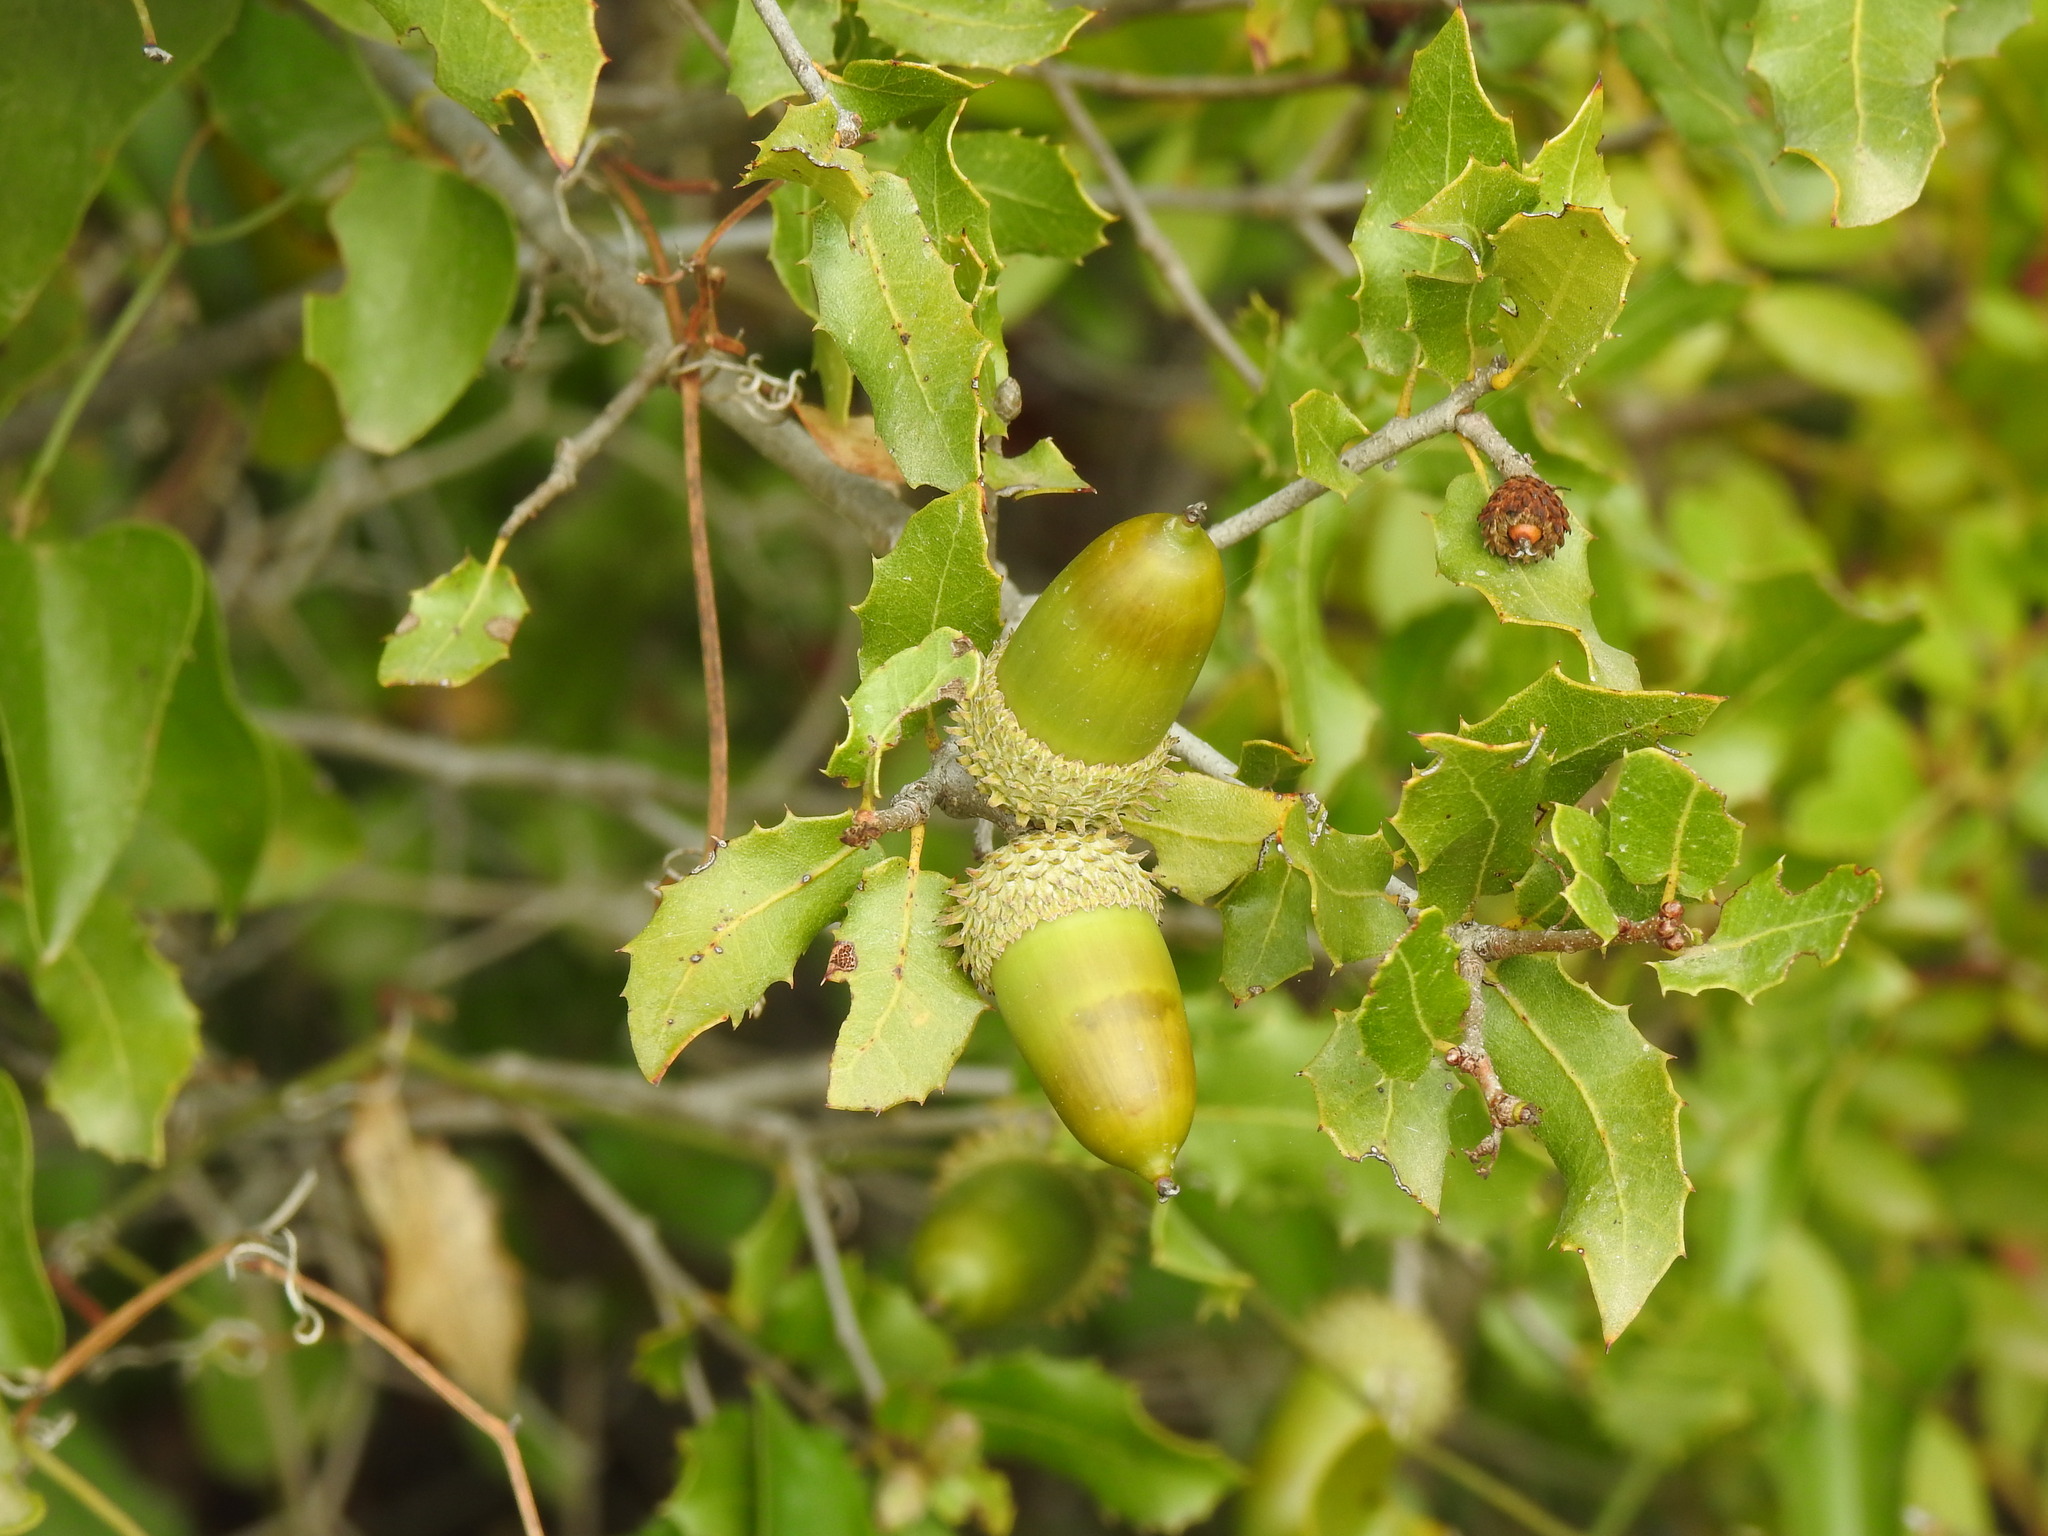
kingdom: Plantae
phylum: Tracheophyta
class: Magnoliopsida
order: Fagales
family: Fagaceae
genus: Quercus
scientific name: Quercus coccifera
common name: Kermes oak
